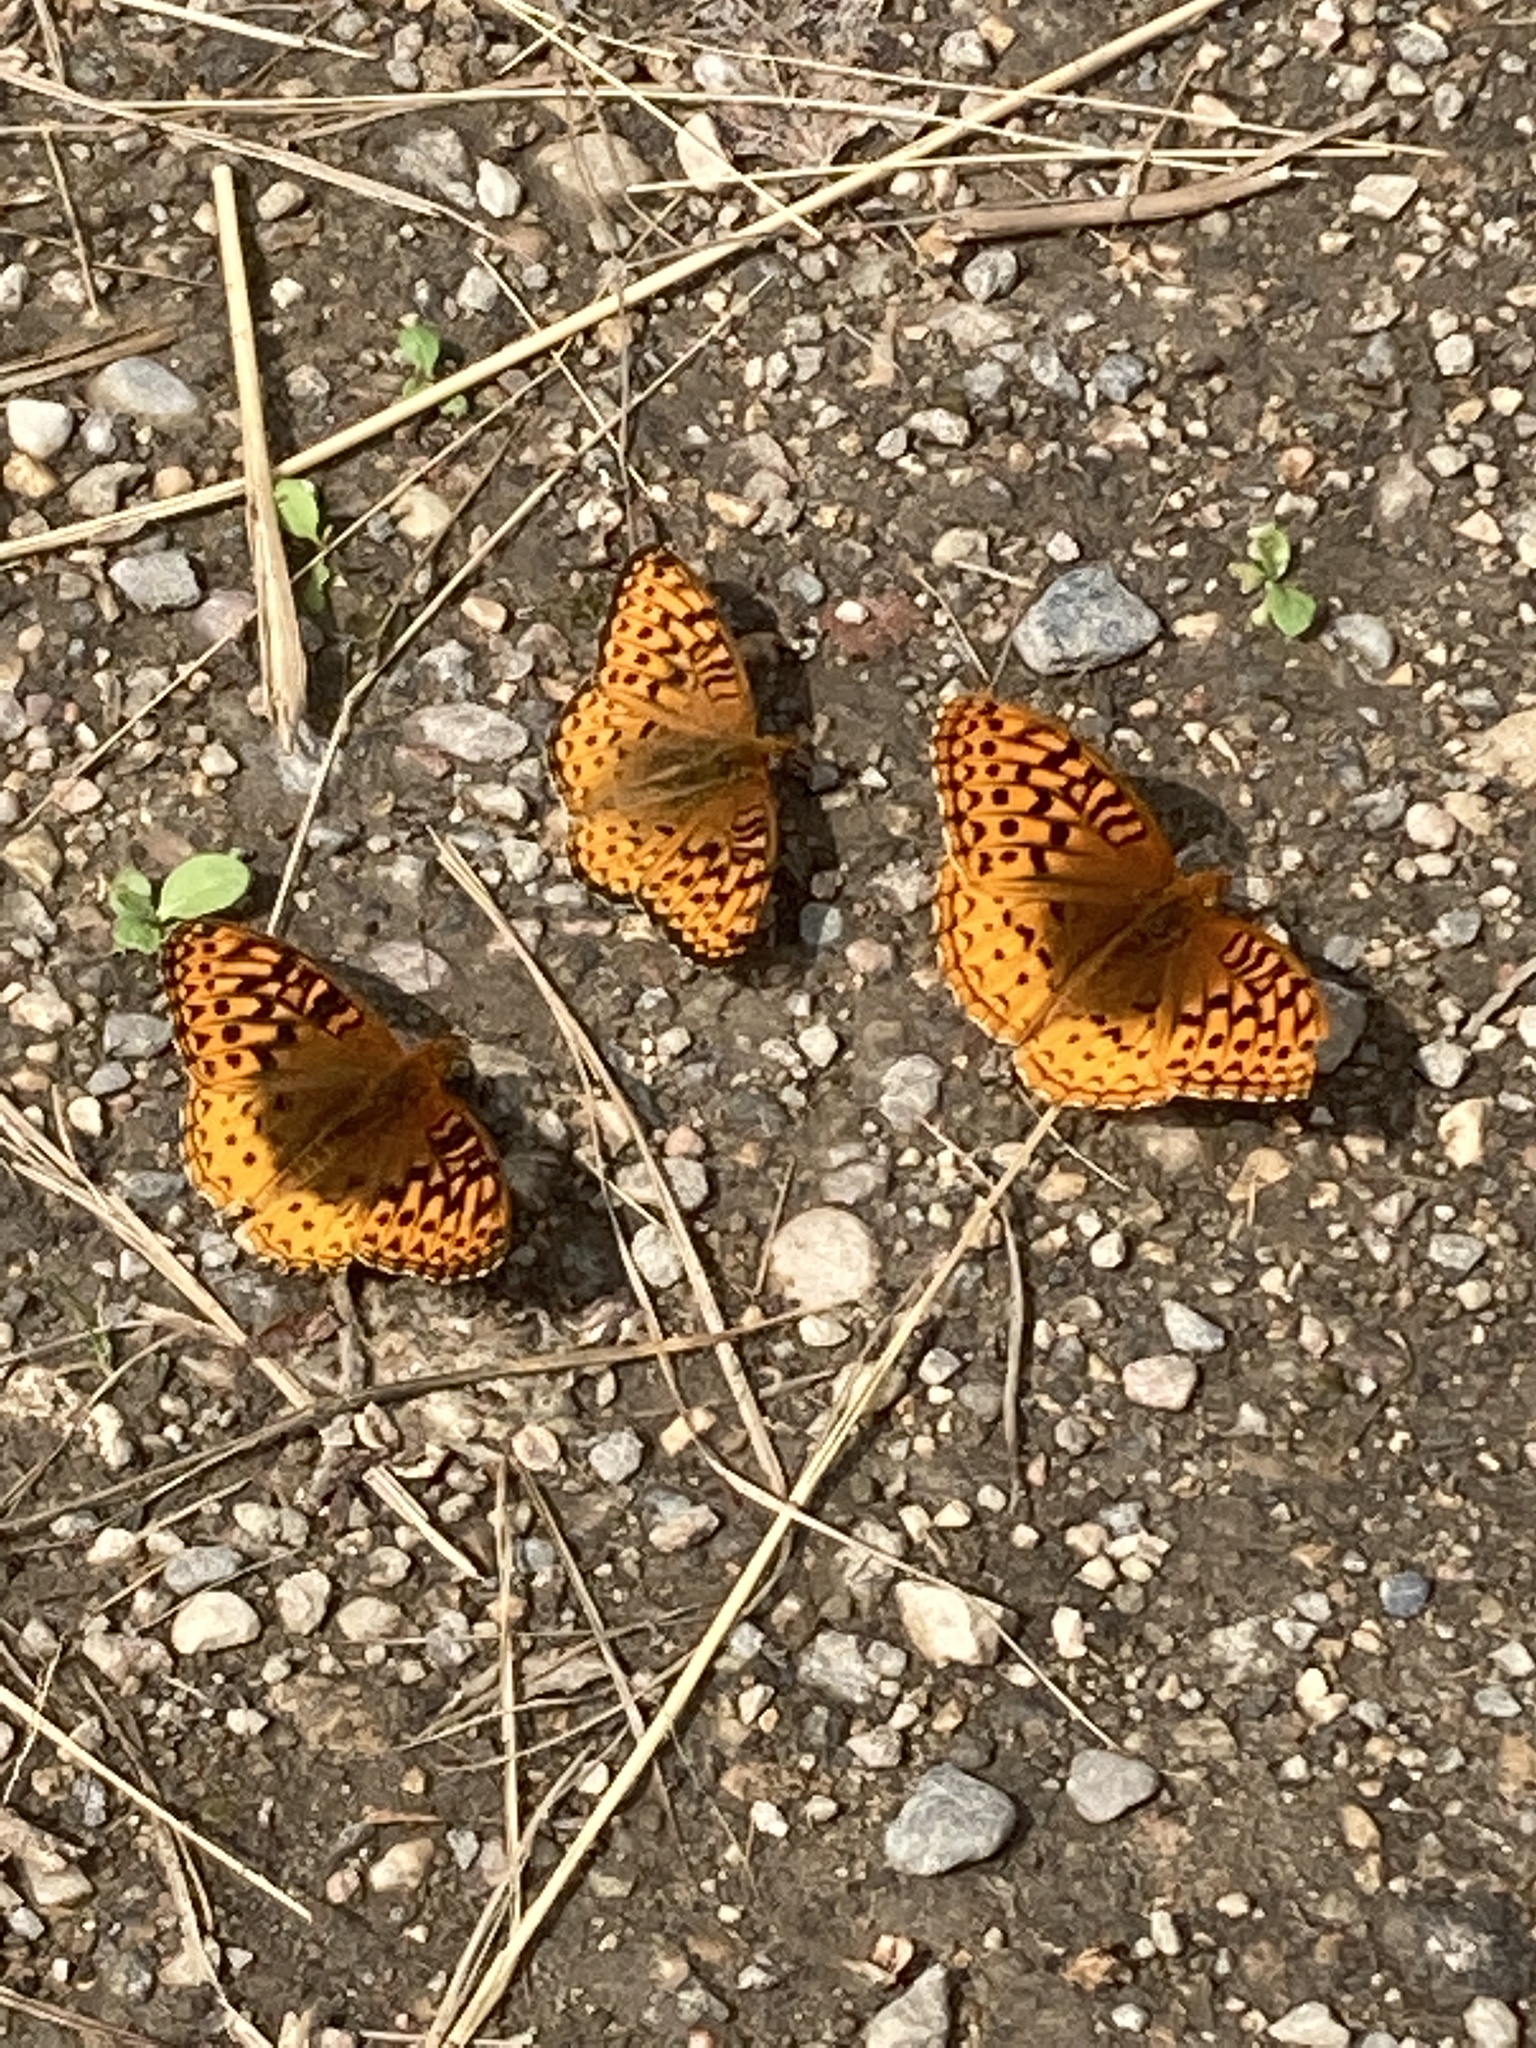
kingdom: Animalia
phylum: Arthropoda
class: Insecta
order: Lepidoptera
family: Nymphalidae
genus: Speyeria
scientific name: Speyeria cybele
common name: Great spangled fritillary
